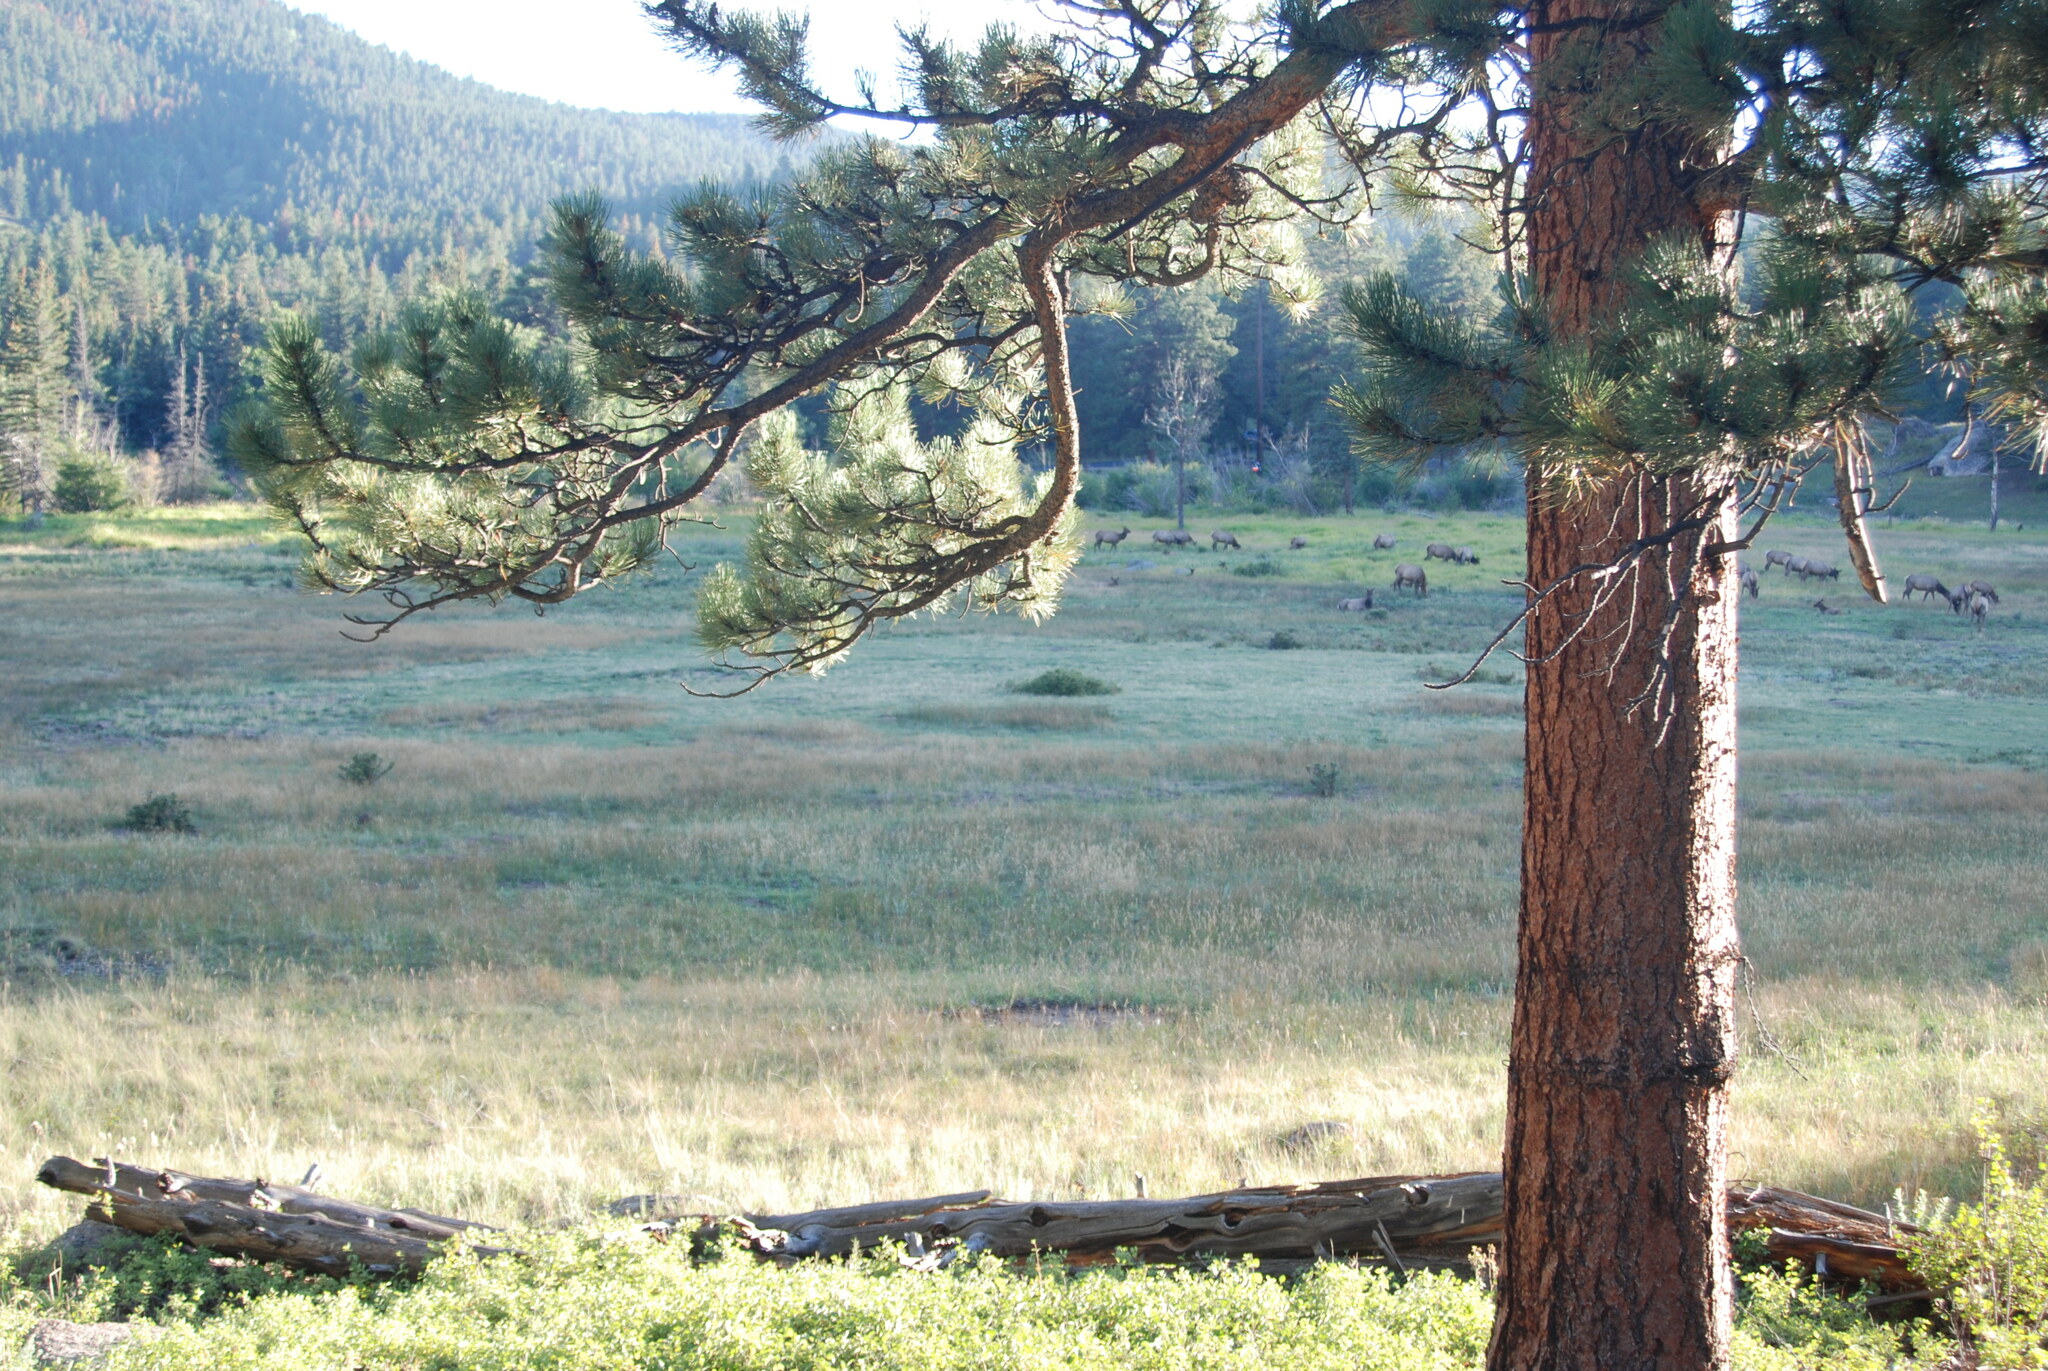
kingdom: Plantae
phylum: Tracheophyta
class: Pinopsida
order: Pinales
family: Pinaceae
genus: Pinus
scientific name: Pinus ponderosa
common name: Western yellow-pine
